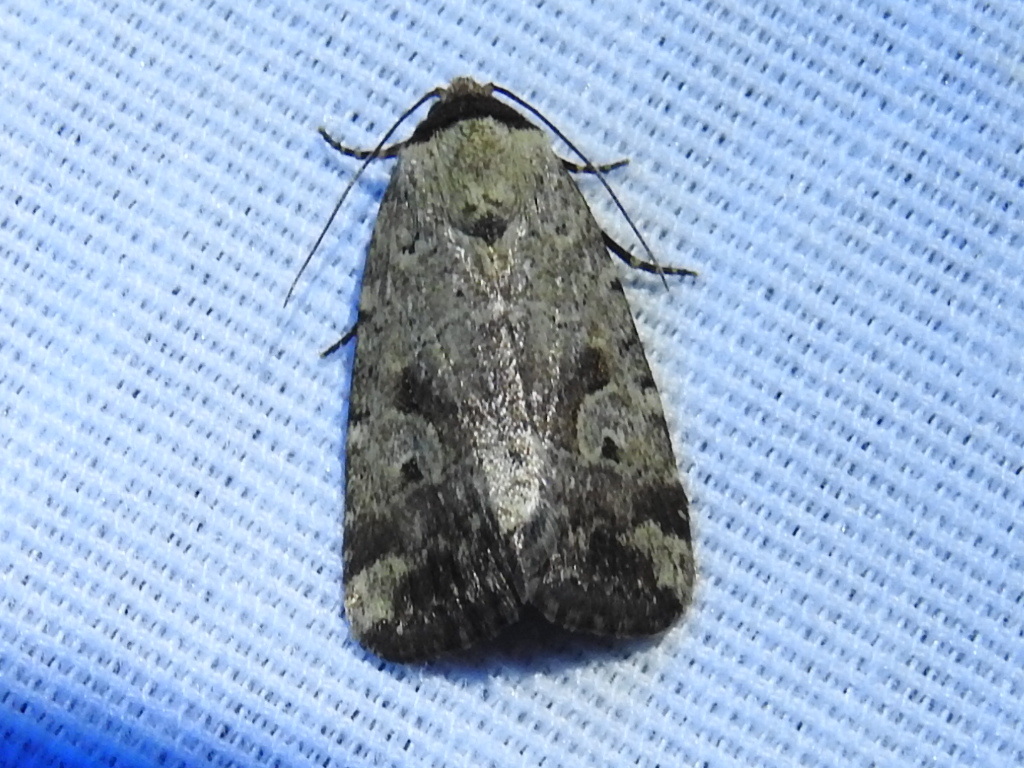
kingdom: Animalia
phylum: Arthropoda
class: Insecta
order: Lepidoptera
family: Noctuidae
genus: Elaphria
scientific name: Elaphria festivoides
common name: Festive midget
